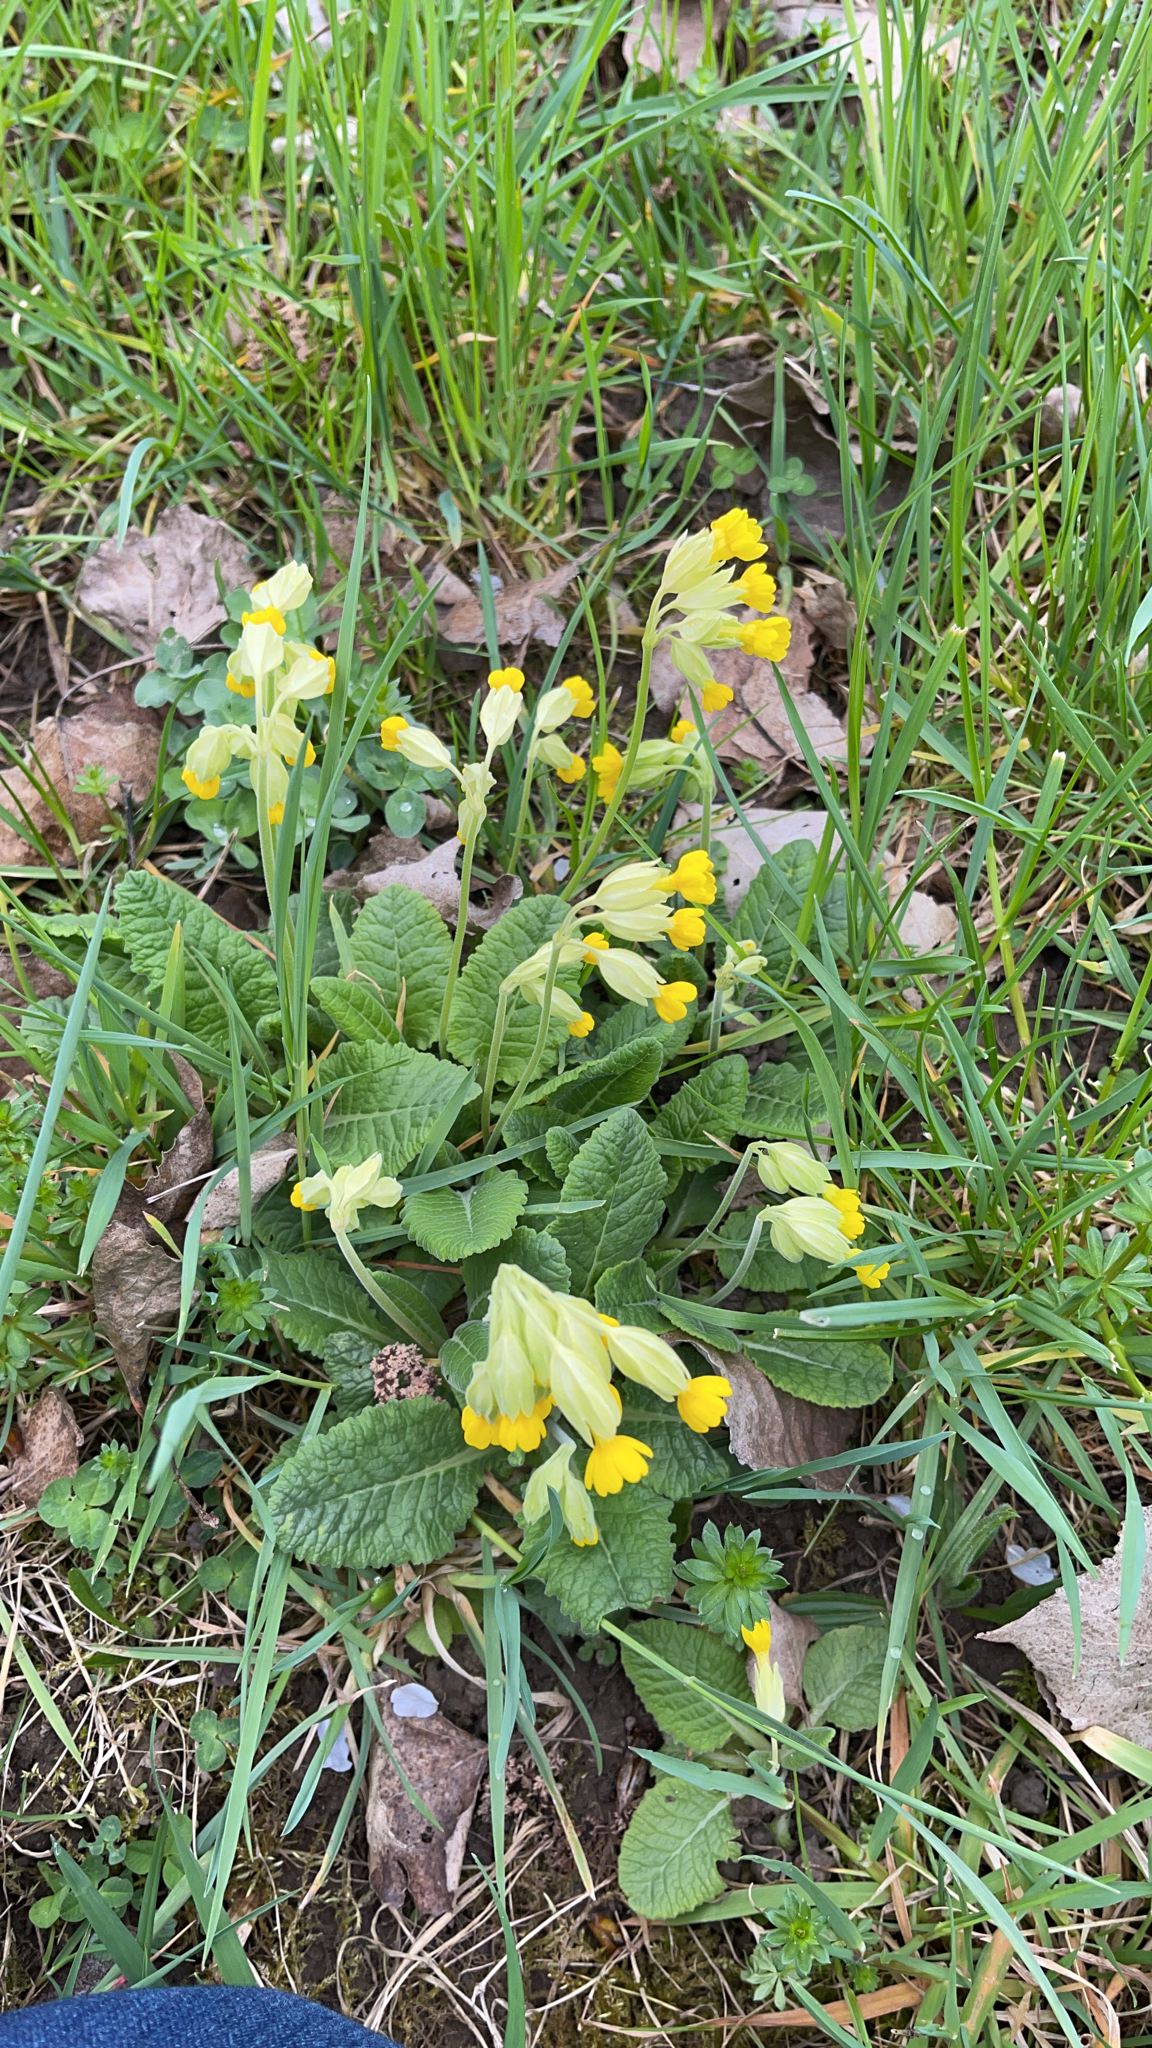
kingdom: Plantae
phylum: Tracheophyta
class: Magnoliopsida
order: Ericales
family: Primulaceae
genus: Primula
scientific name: Primula veris
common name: Cowslip
